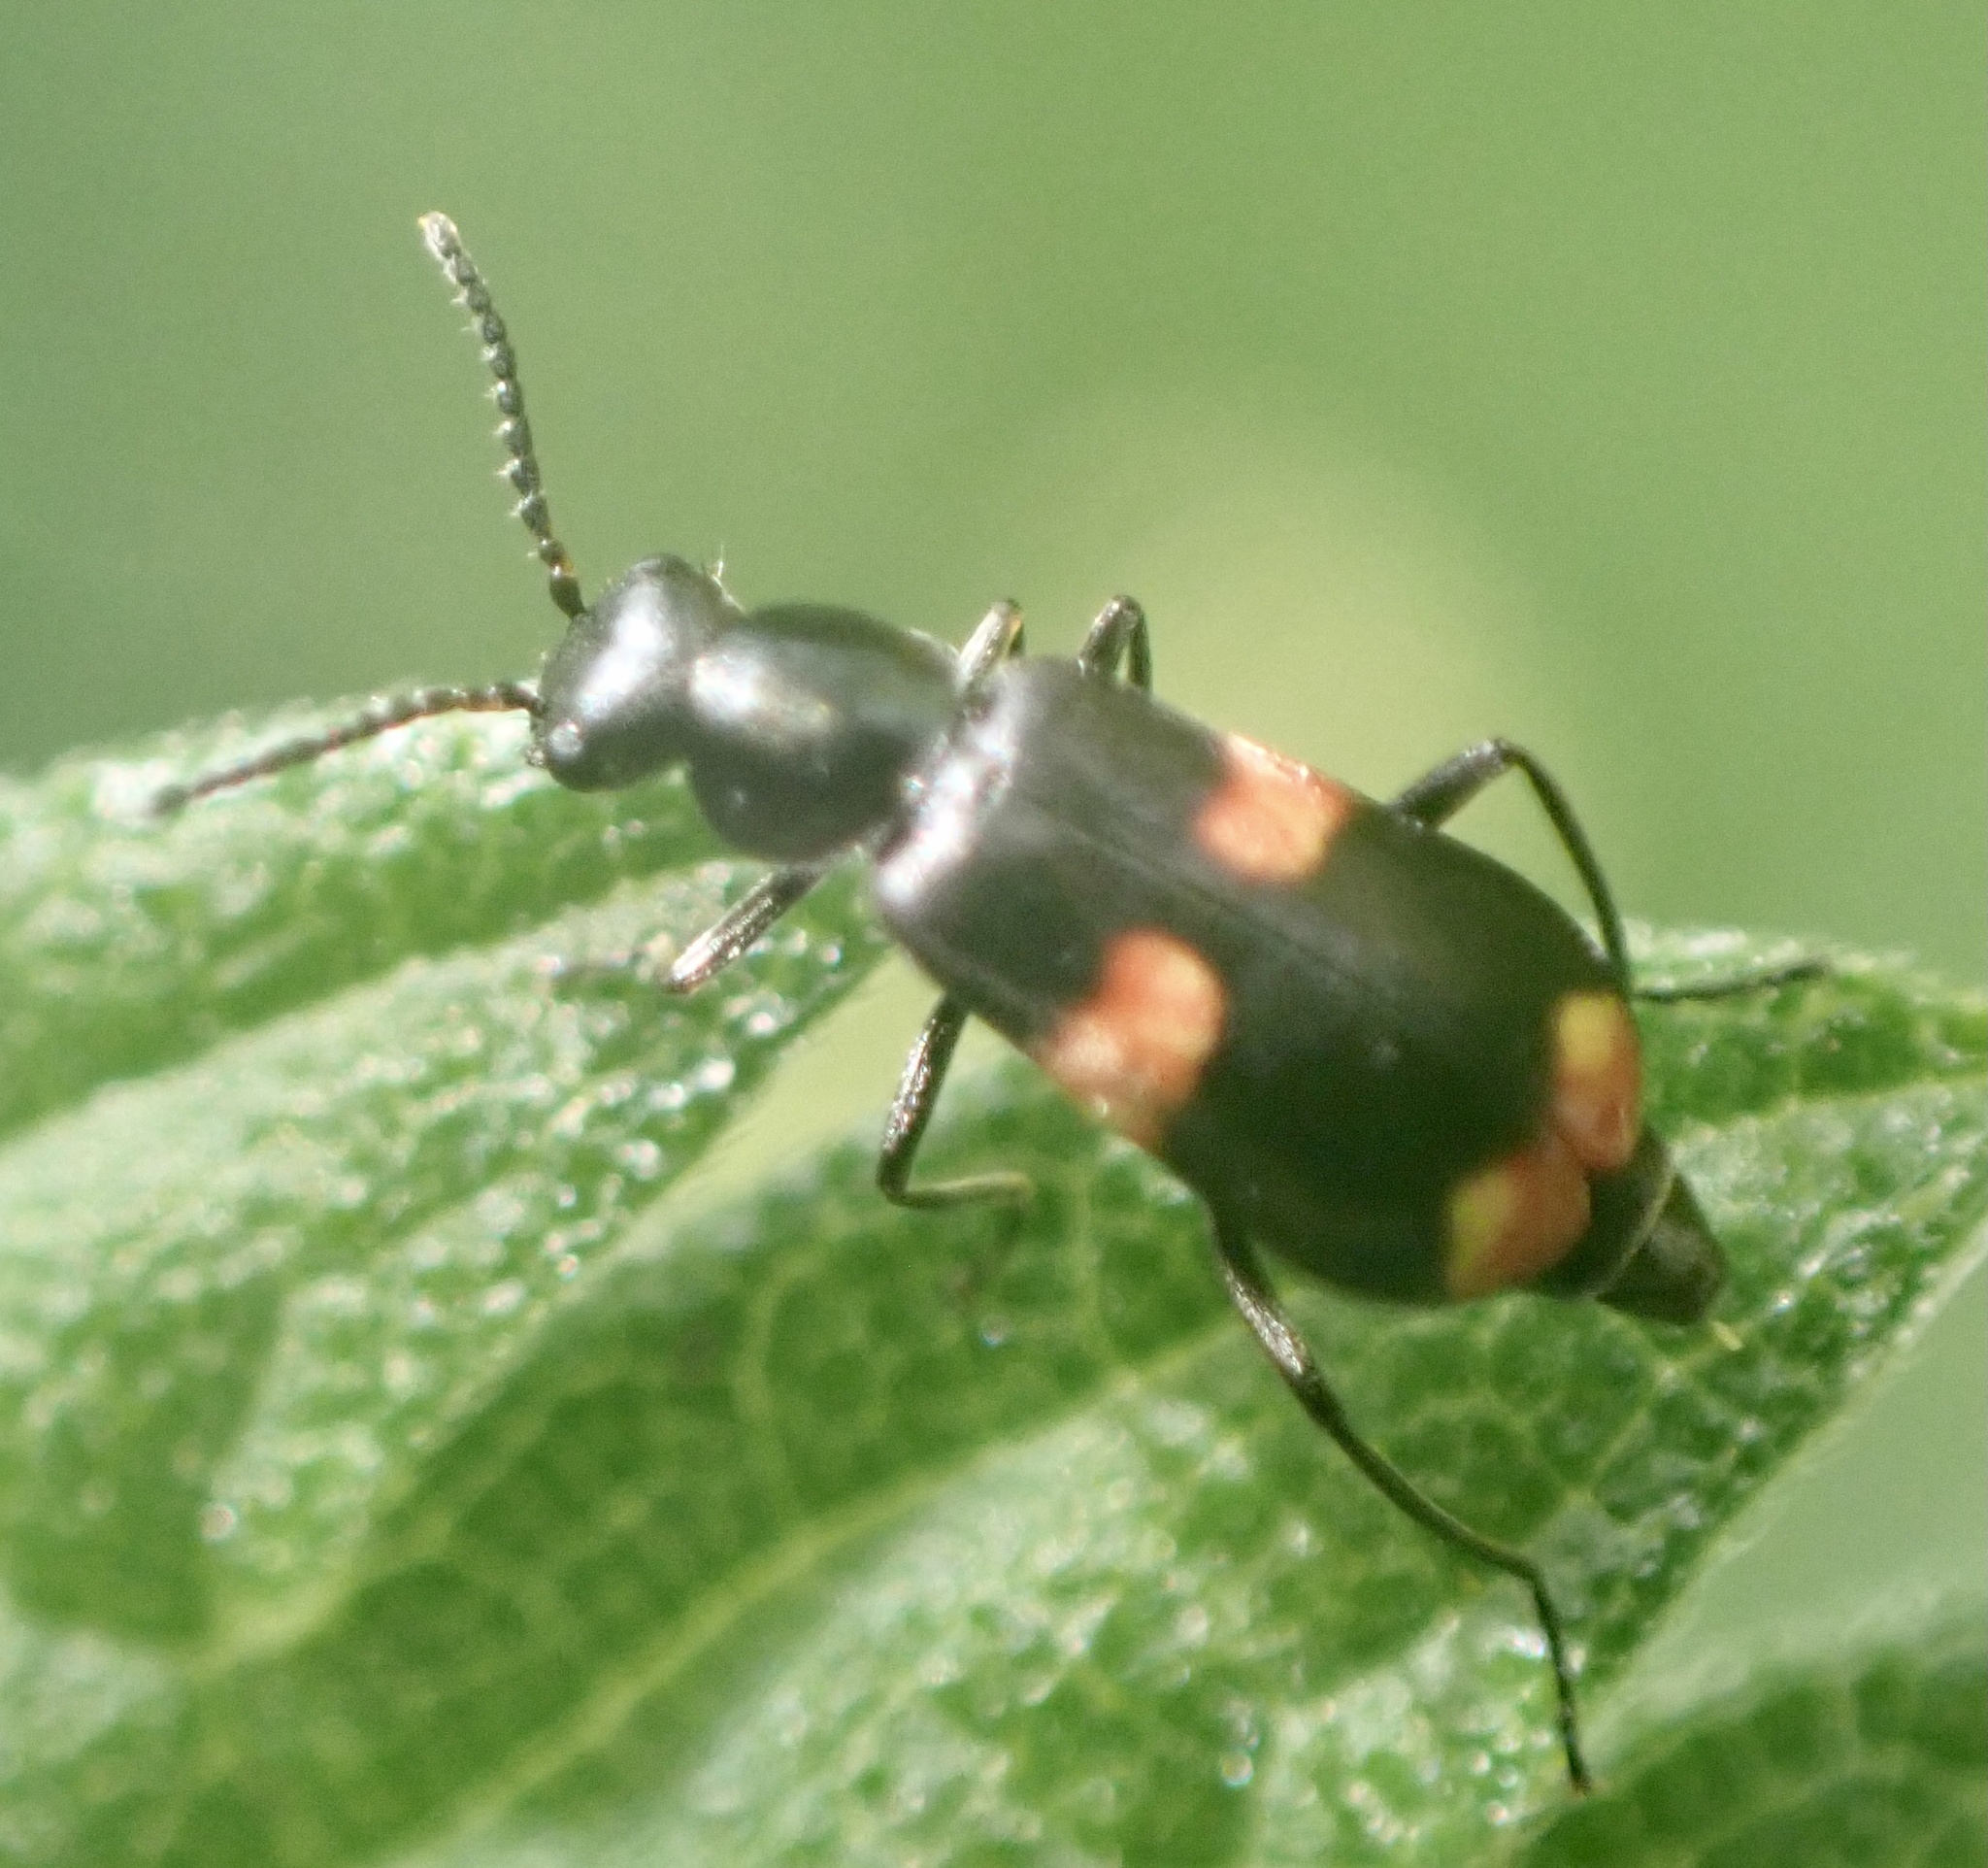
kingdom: Animalia
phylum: Arthropoda
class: Insecta
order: Coleoptera
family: Melyridae
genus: Anthocomus
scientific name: Anthocomus fasciatus
